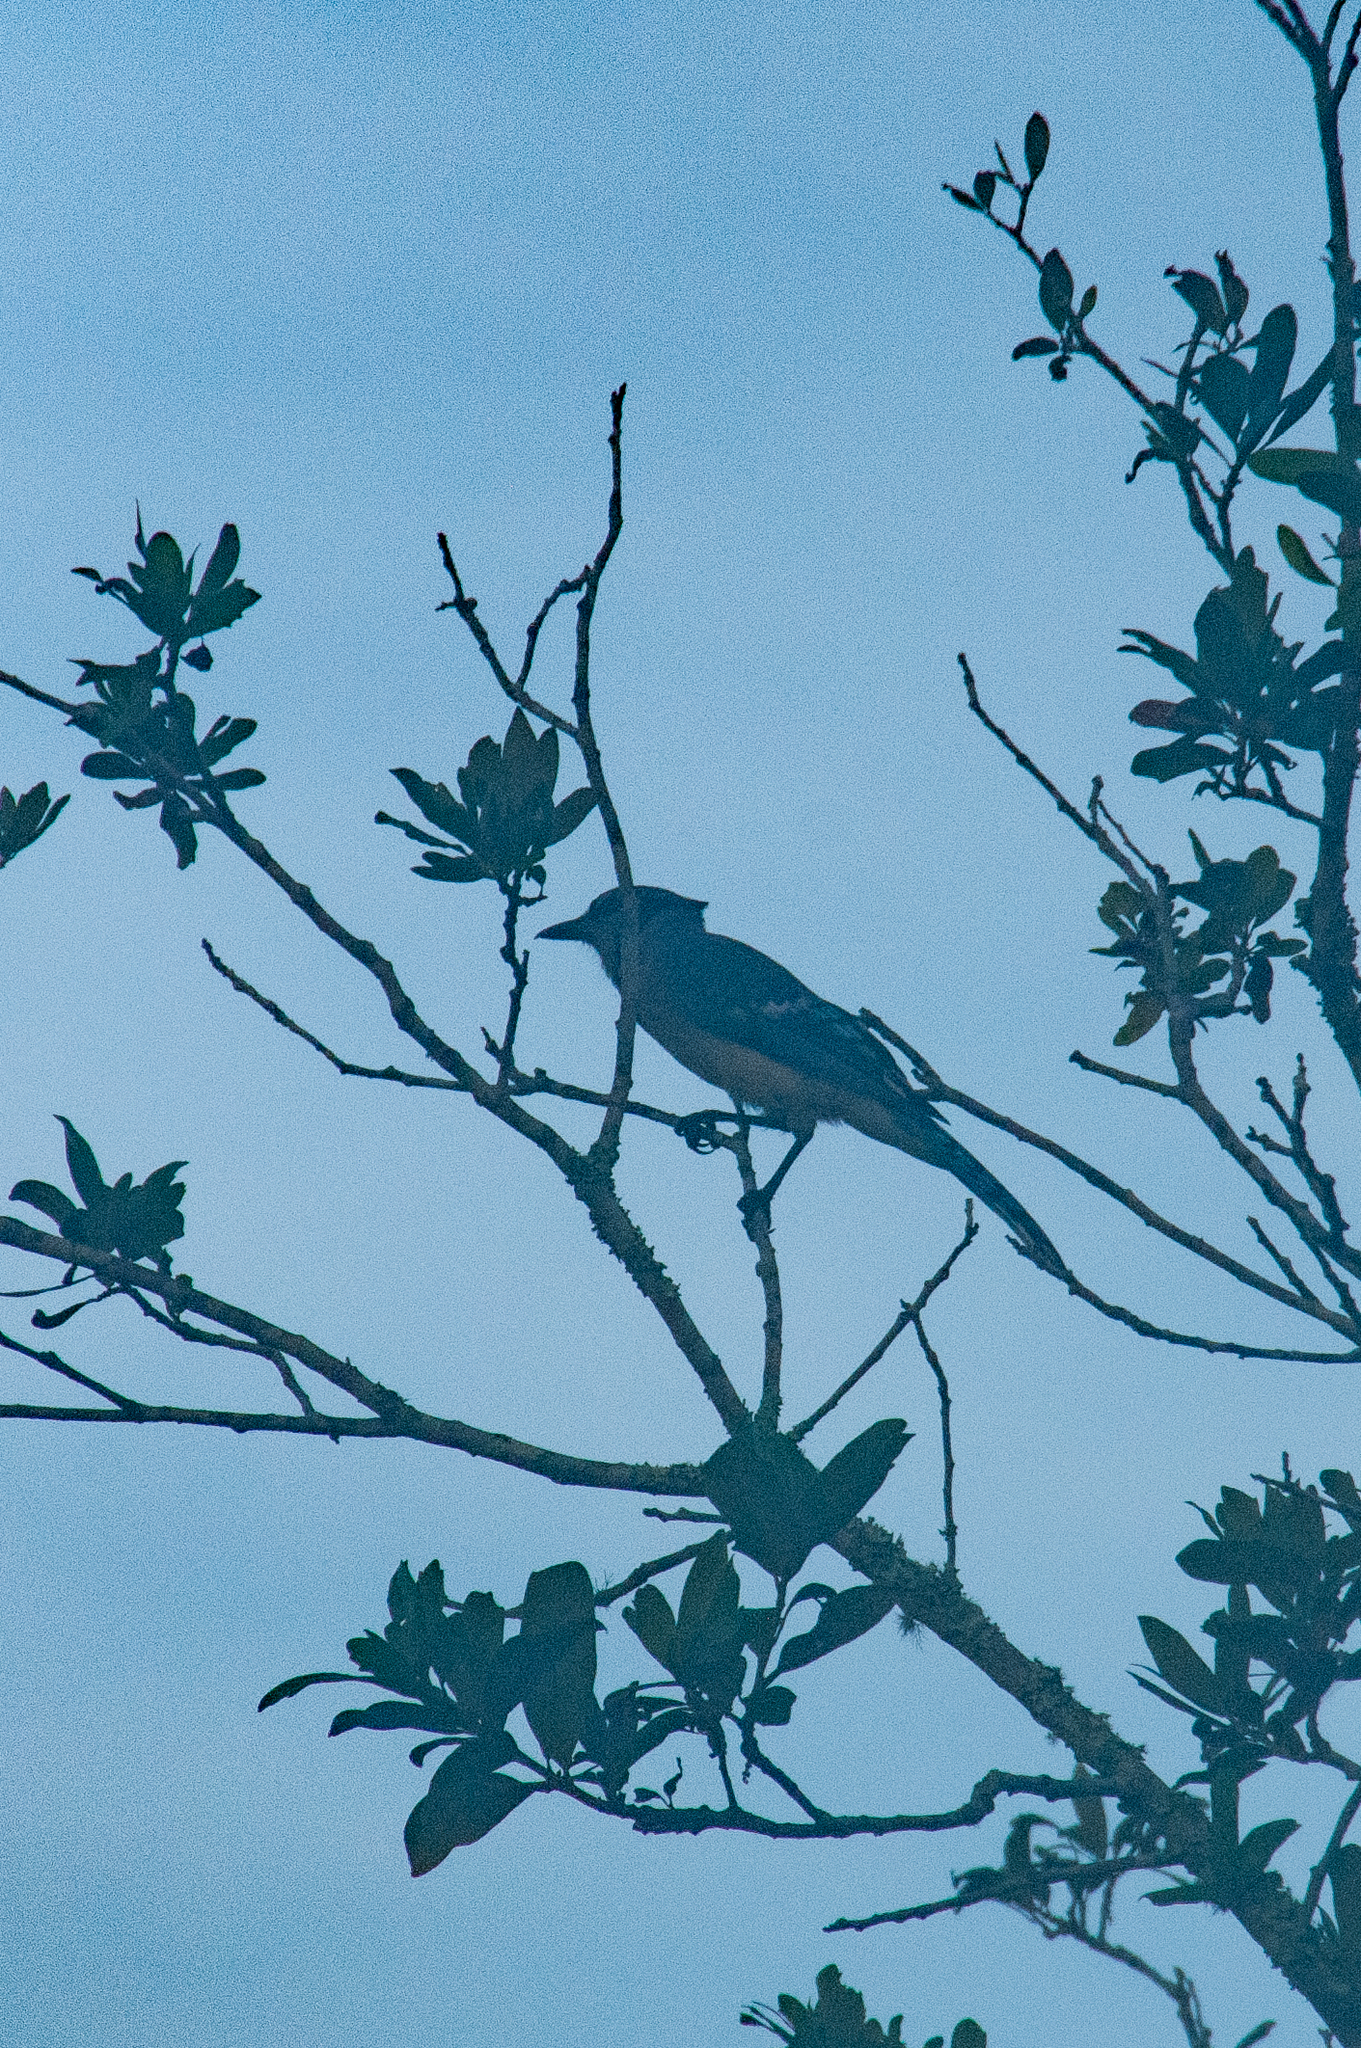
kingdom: Animalia
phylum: Chordata
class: Aves
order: Passeriformes
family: Corvidae
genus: Cyanocitta
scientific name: Cyanocitta cristata
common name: Blue jay
